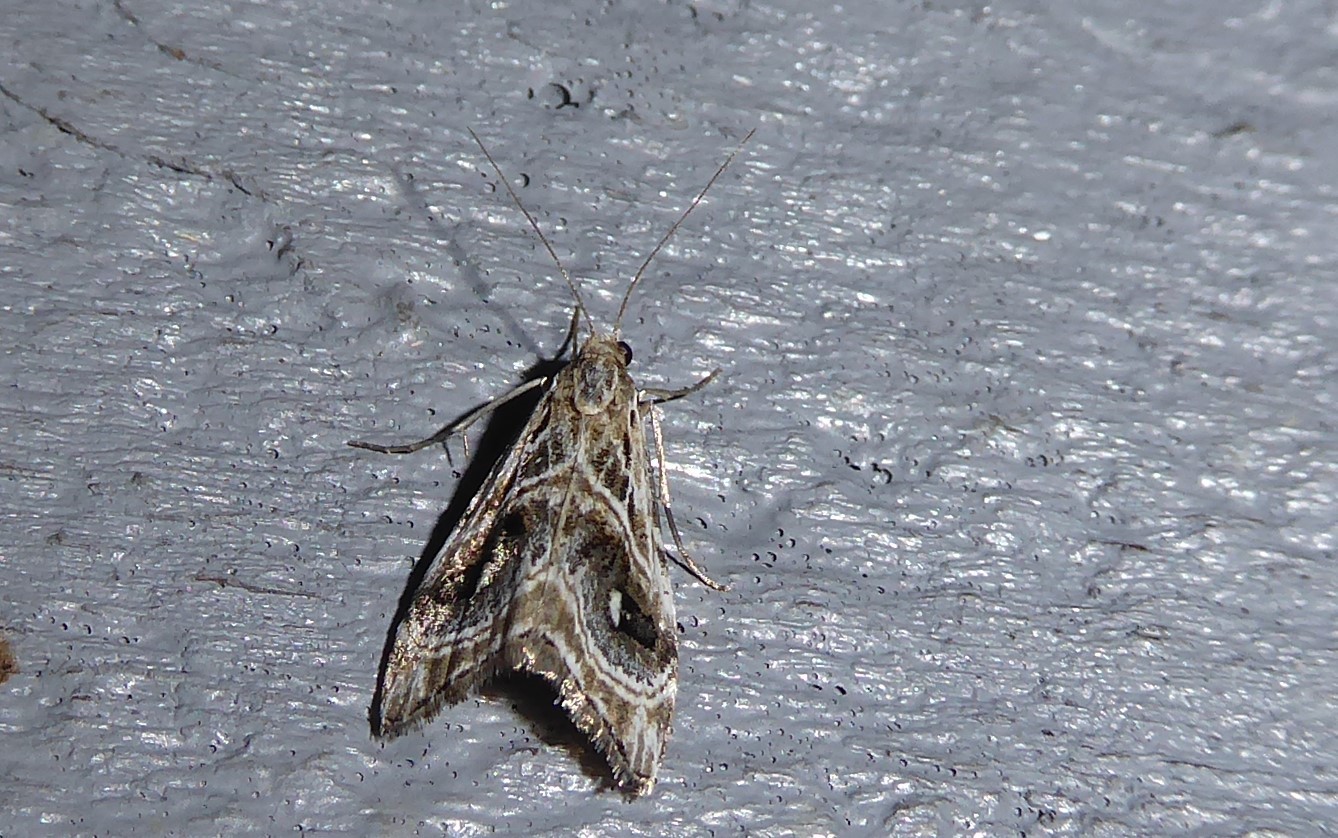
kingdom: Animalia
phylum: Arthropoda
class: Insecta
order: Lepidoptera
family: Crambidae
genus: Gadira
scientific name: Gadira acerella
